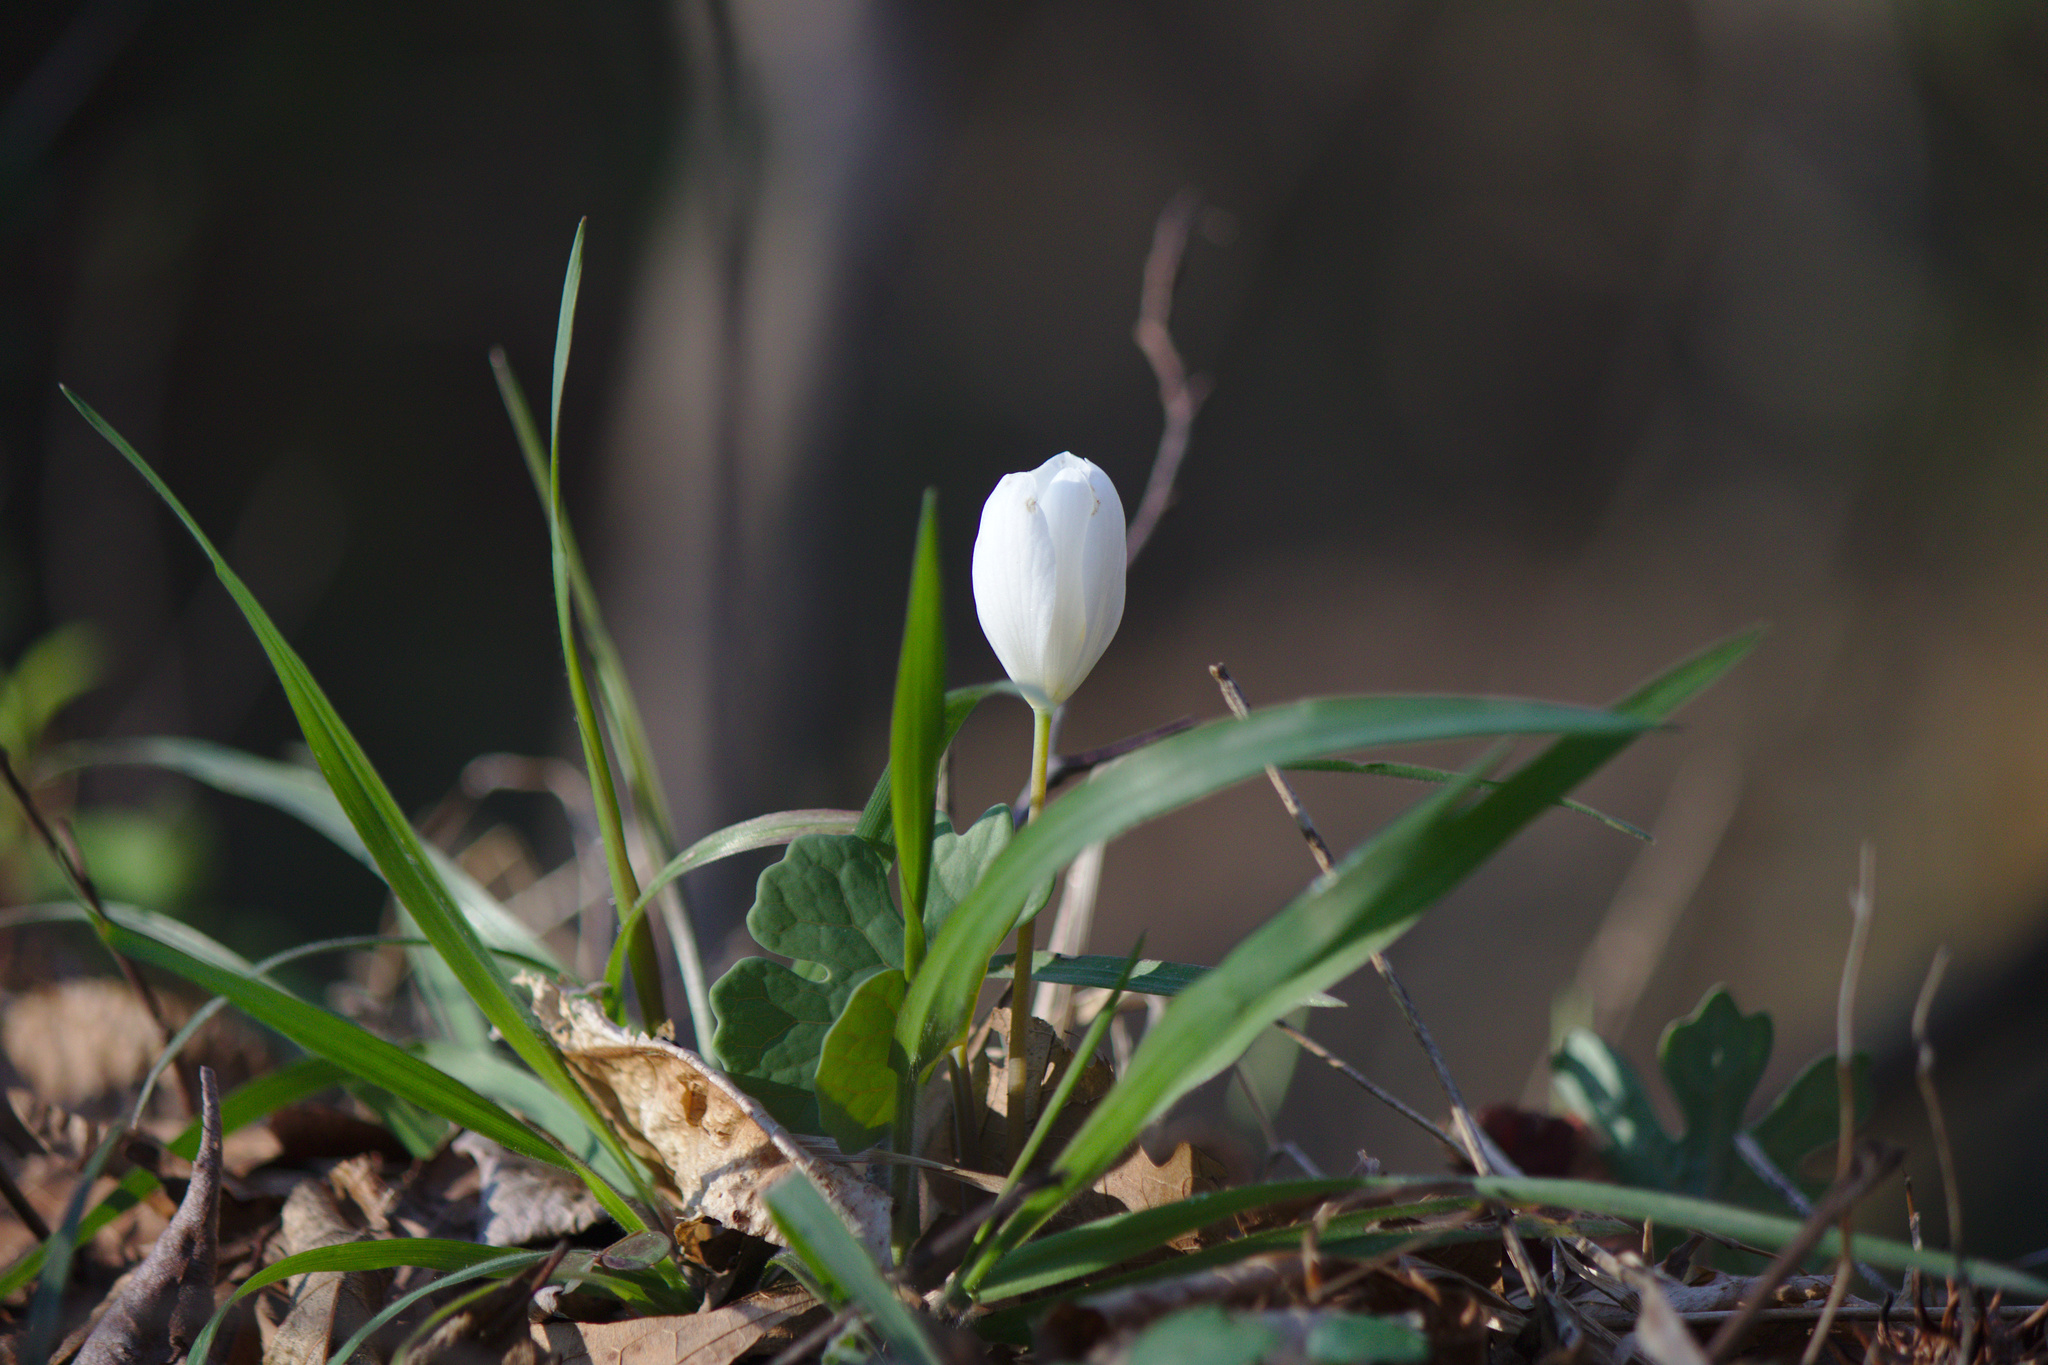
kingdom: Plantae
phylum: Tracheophyta
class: Magnoliopsida
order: Ranunculales
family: Papaveraceae
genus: Sanguinaria
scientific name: Sanguinaria canadensis
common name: Bloodroot
